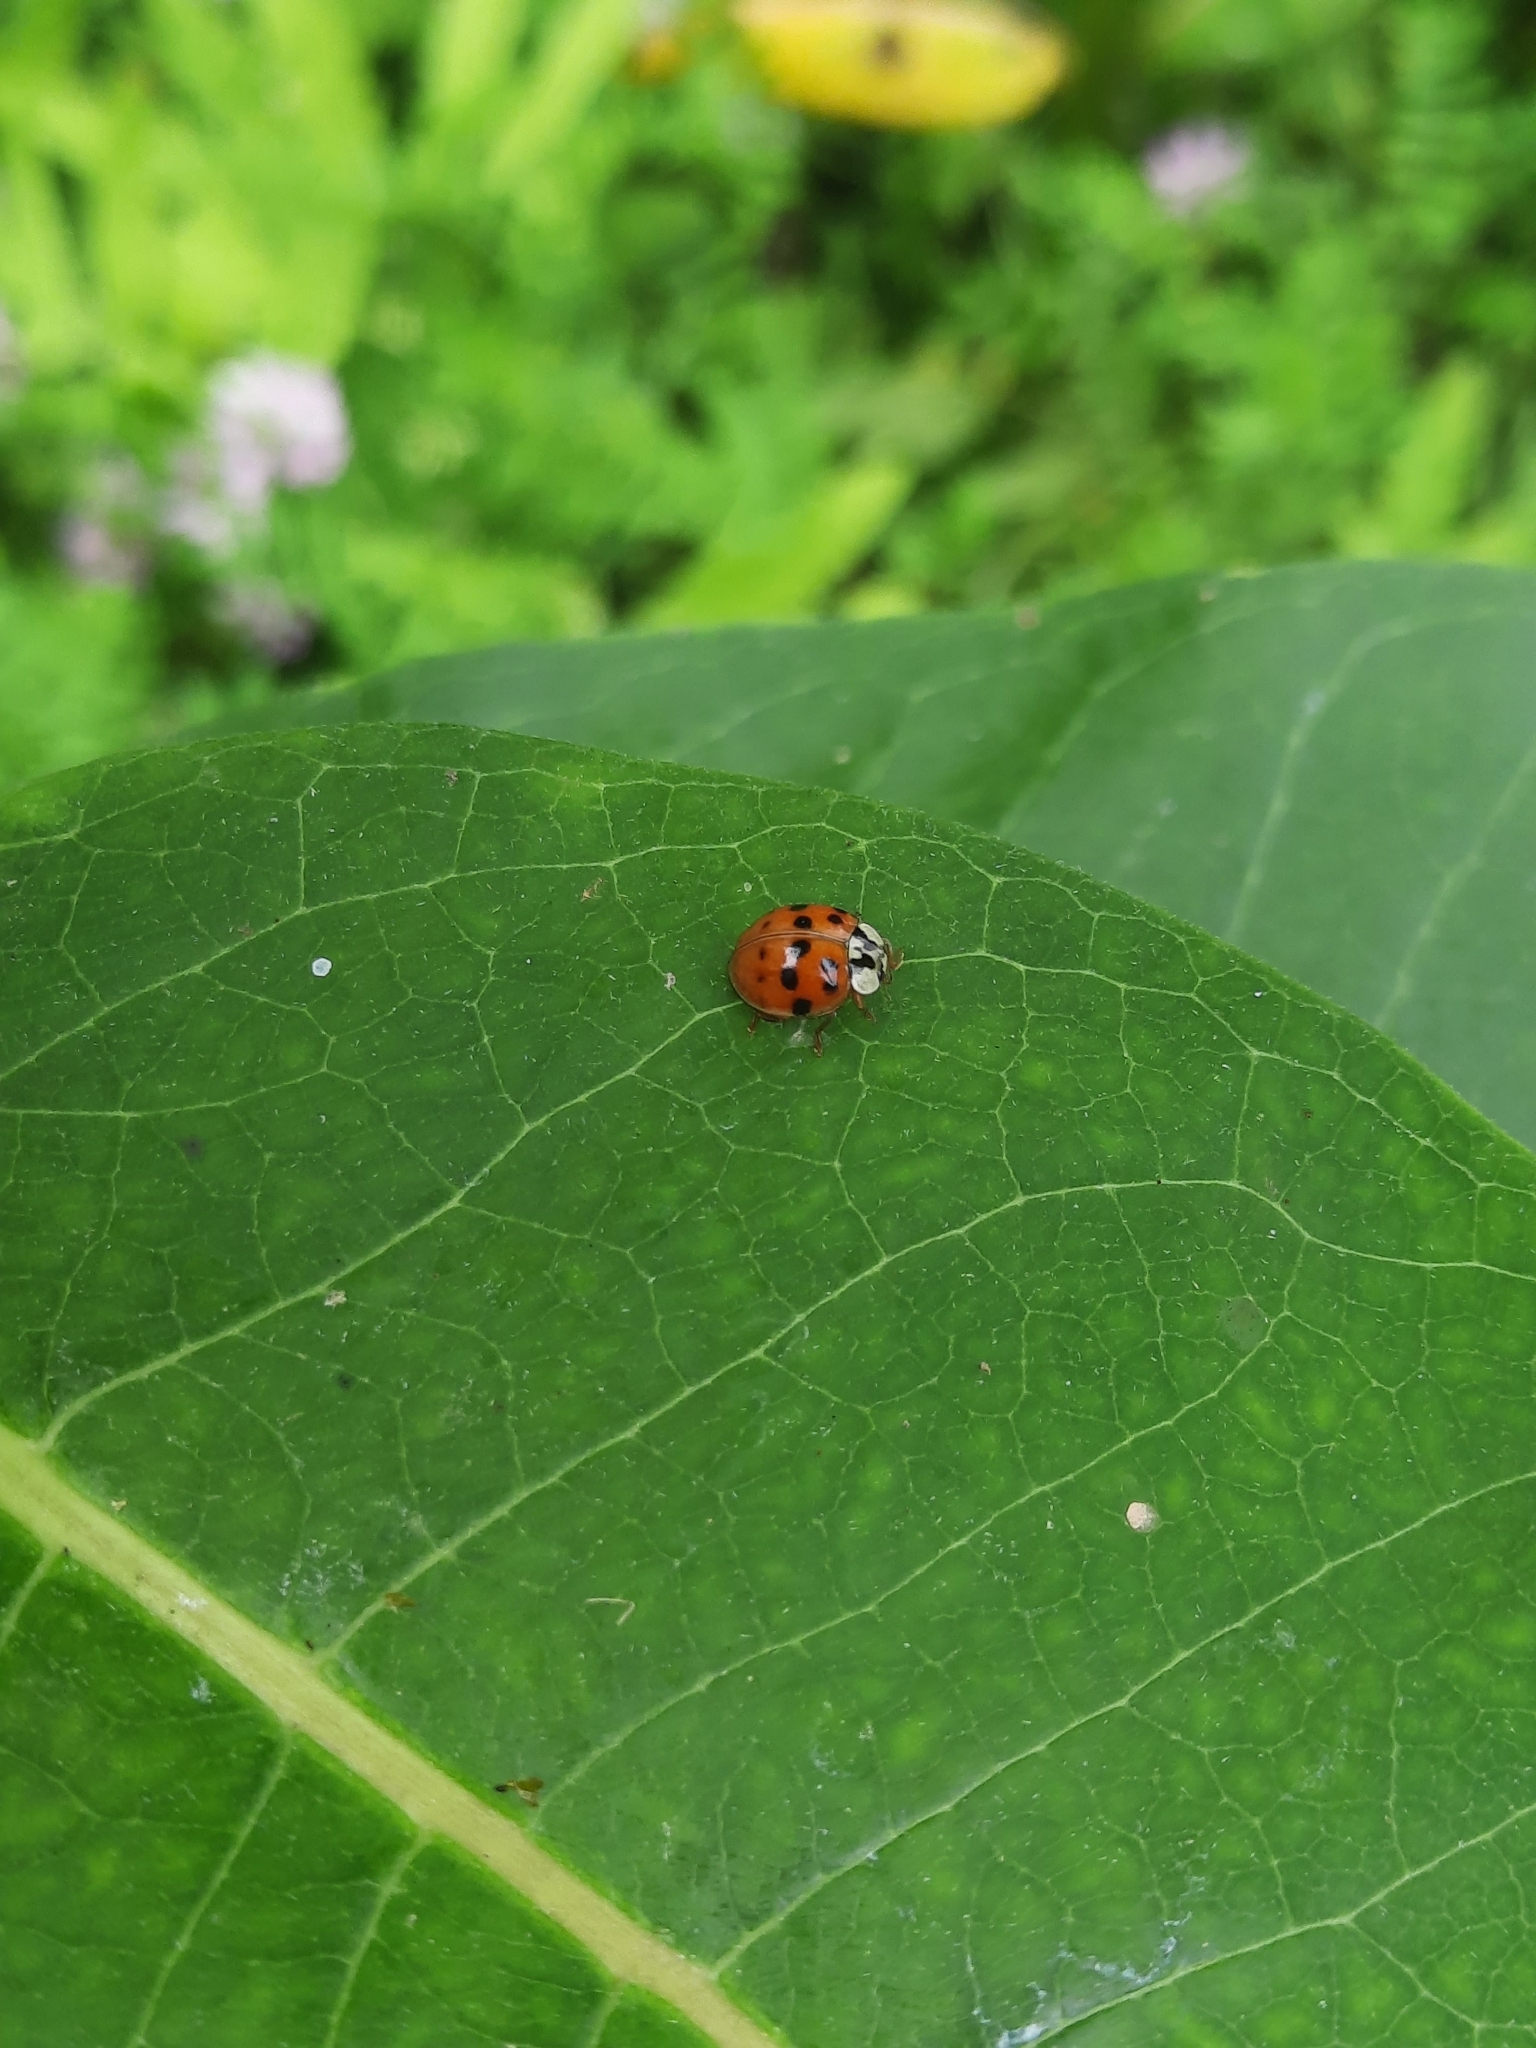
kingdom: Animalia
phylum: Arthropoda
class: Insecta
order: Coleoptera
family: Coccinellidae
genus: Harmonia
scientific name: Harmonia axyridis
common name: Harlequin ladybird
